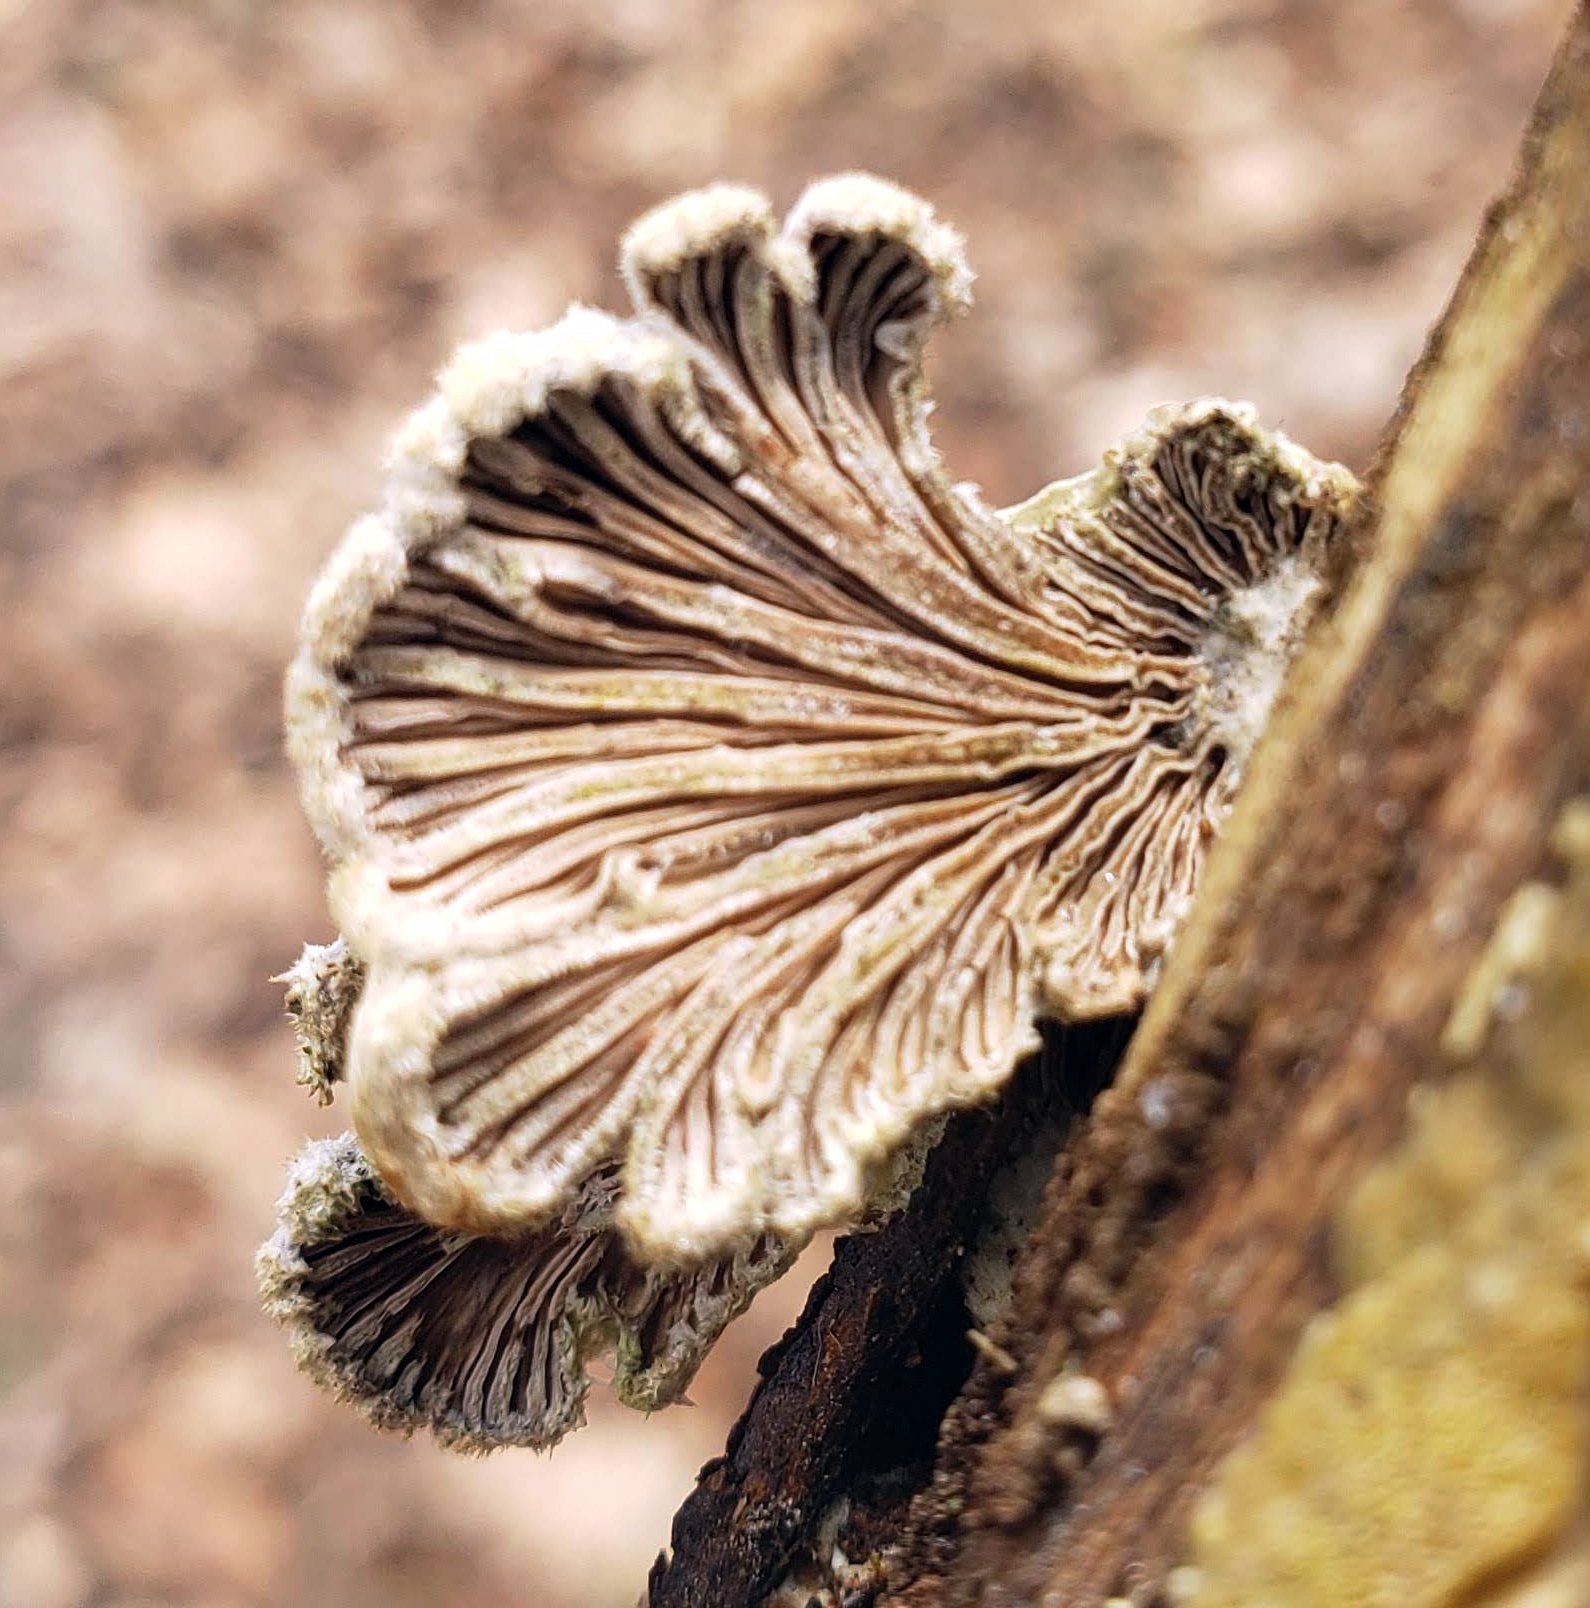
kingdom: Fungi
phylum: Basidiomycota
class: Agaricomycetes
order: Agaricales
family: Schizophyllaceae
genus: Schizophyllum
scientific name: Schizophyllum commune
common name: Common porecrust
